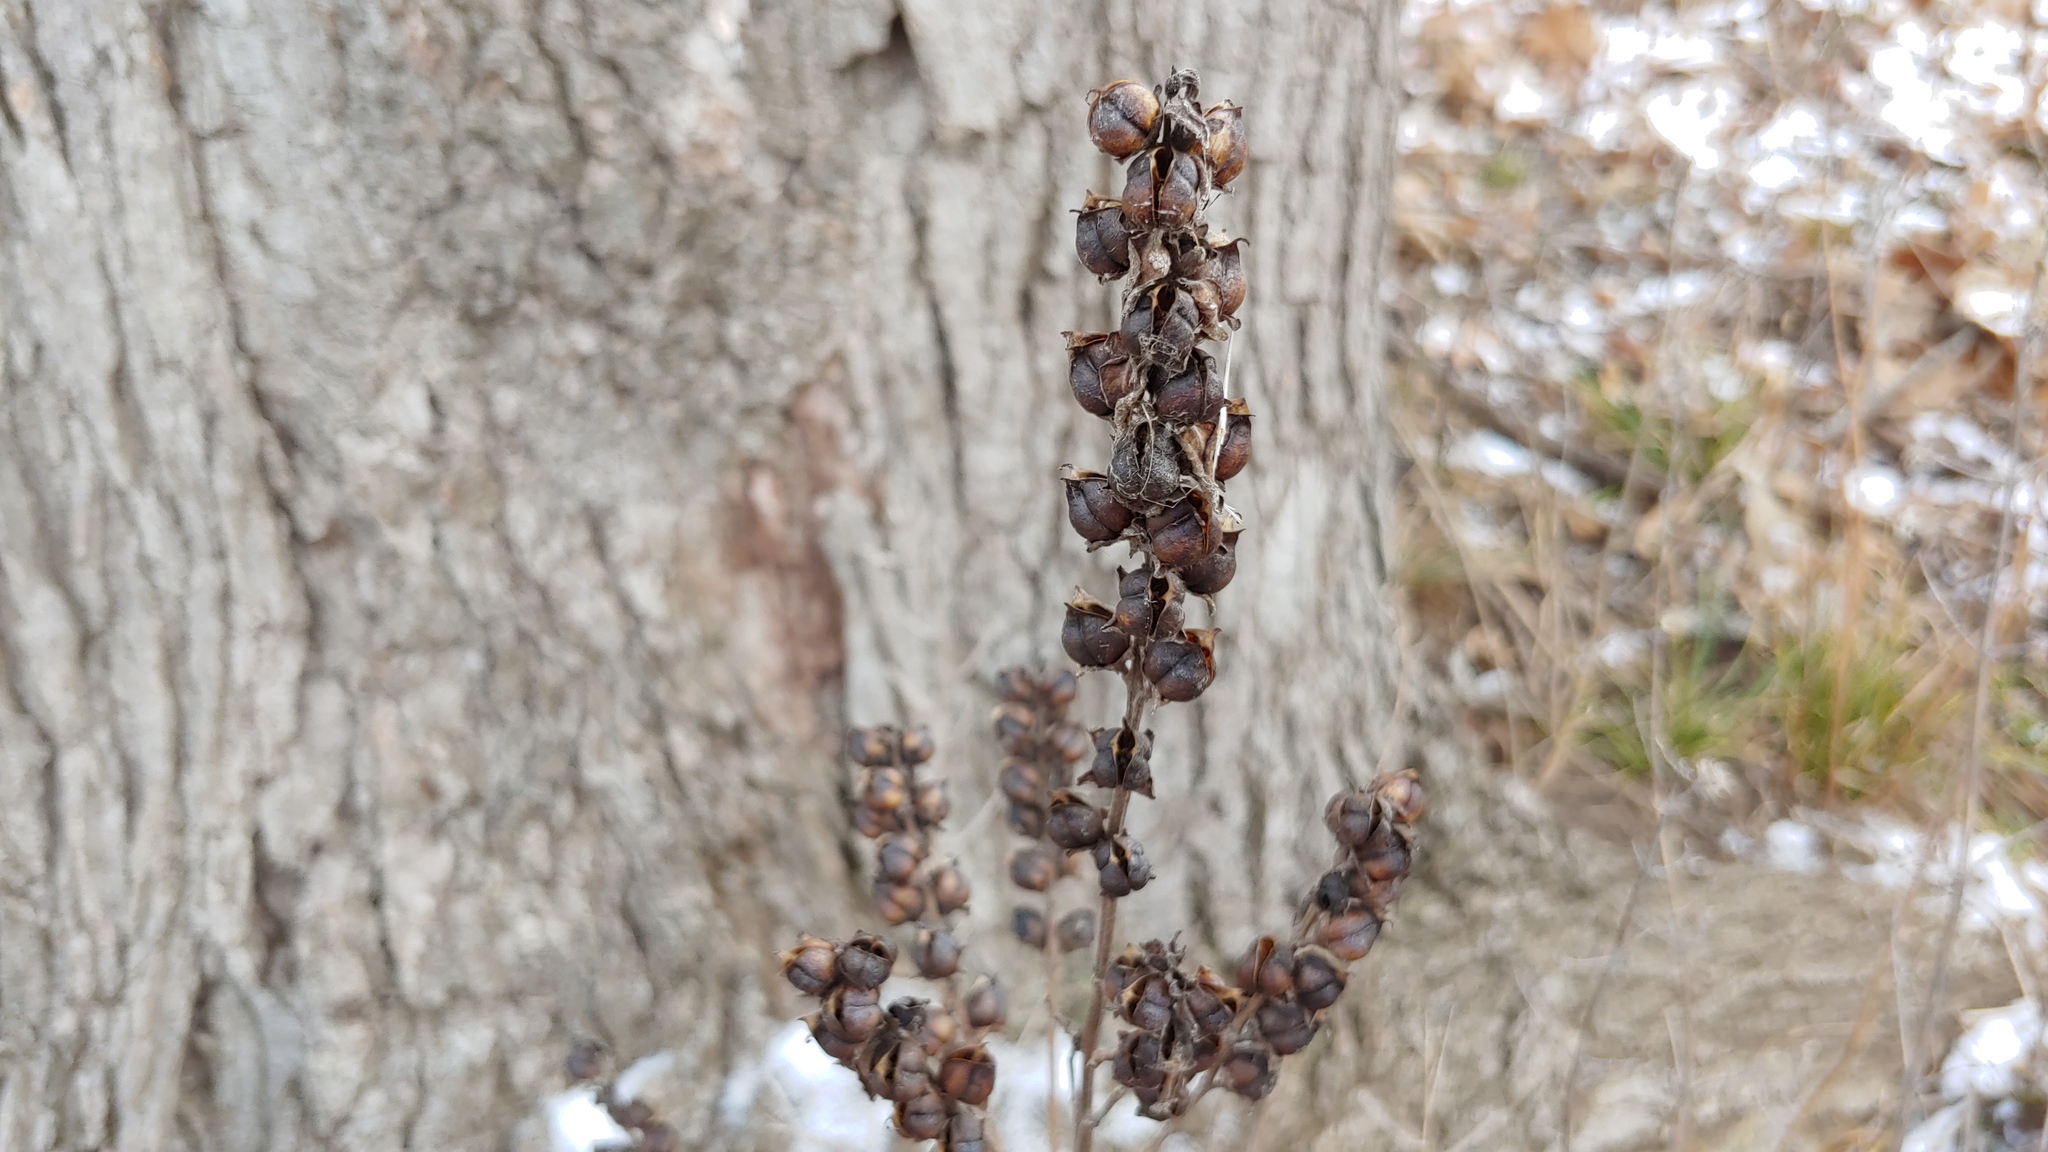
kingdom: Plantae
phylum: Tracheophyta
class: Magnoliopsida
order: Lamiales
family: Orobanchaceae
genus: Dasistoma
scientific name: Dasistoma macrophyllum
